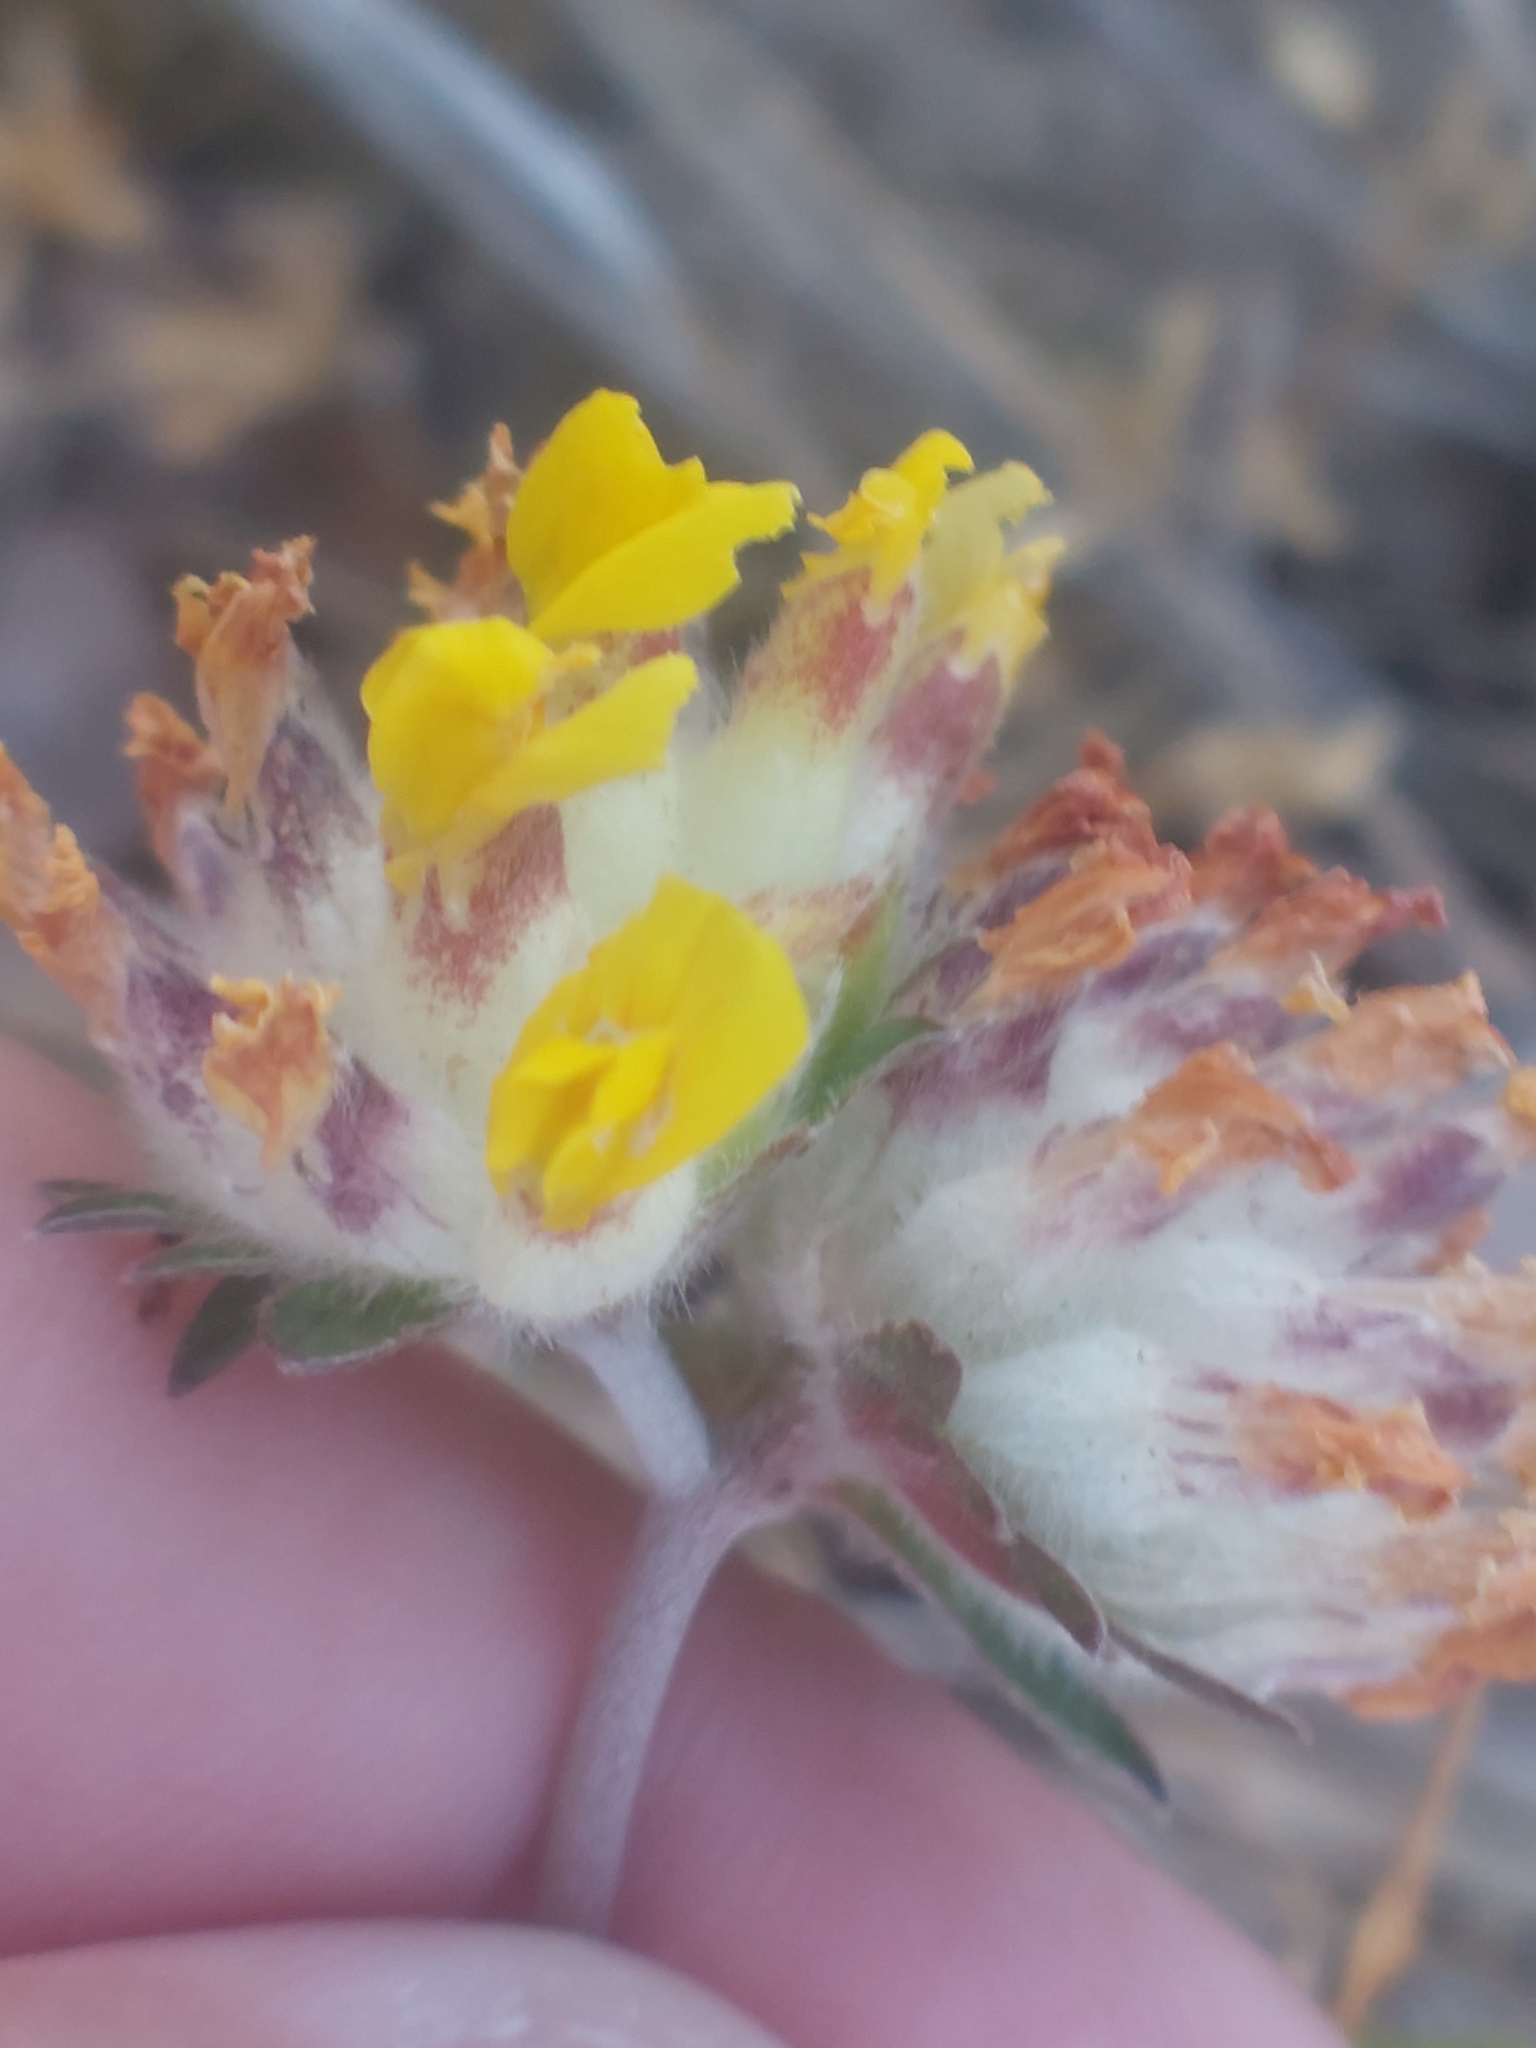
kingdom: Plantae
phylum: Tracheophyta
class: Magnoliopsida
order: Fabales
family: Fabaceae
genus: Anthyllis
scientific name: Anthyllis vulneraria
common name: Kidney vetch
